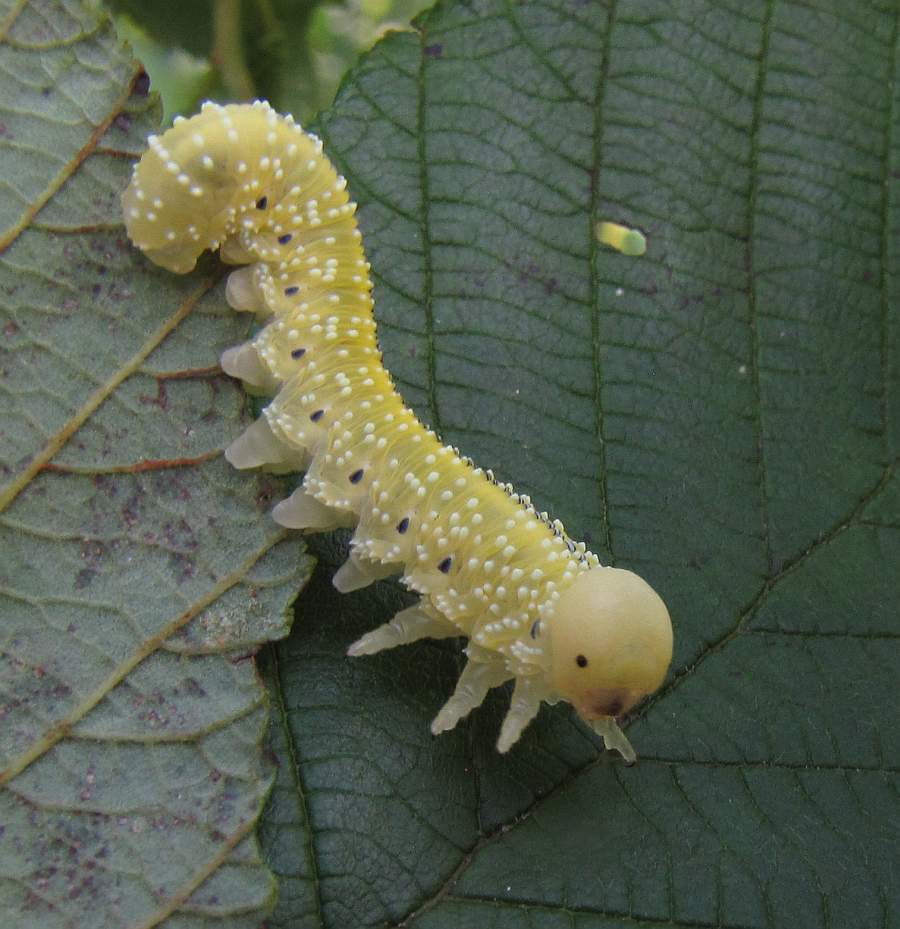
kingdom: Animalia
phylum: Arthropoda
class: Insecta
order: Hymenoptera
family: Cimbicidae
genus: Cimbex
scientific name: Cimbex americana
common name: Elm sawfly
